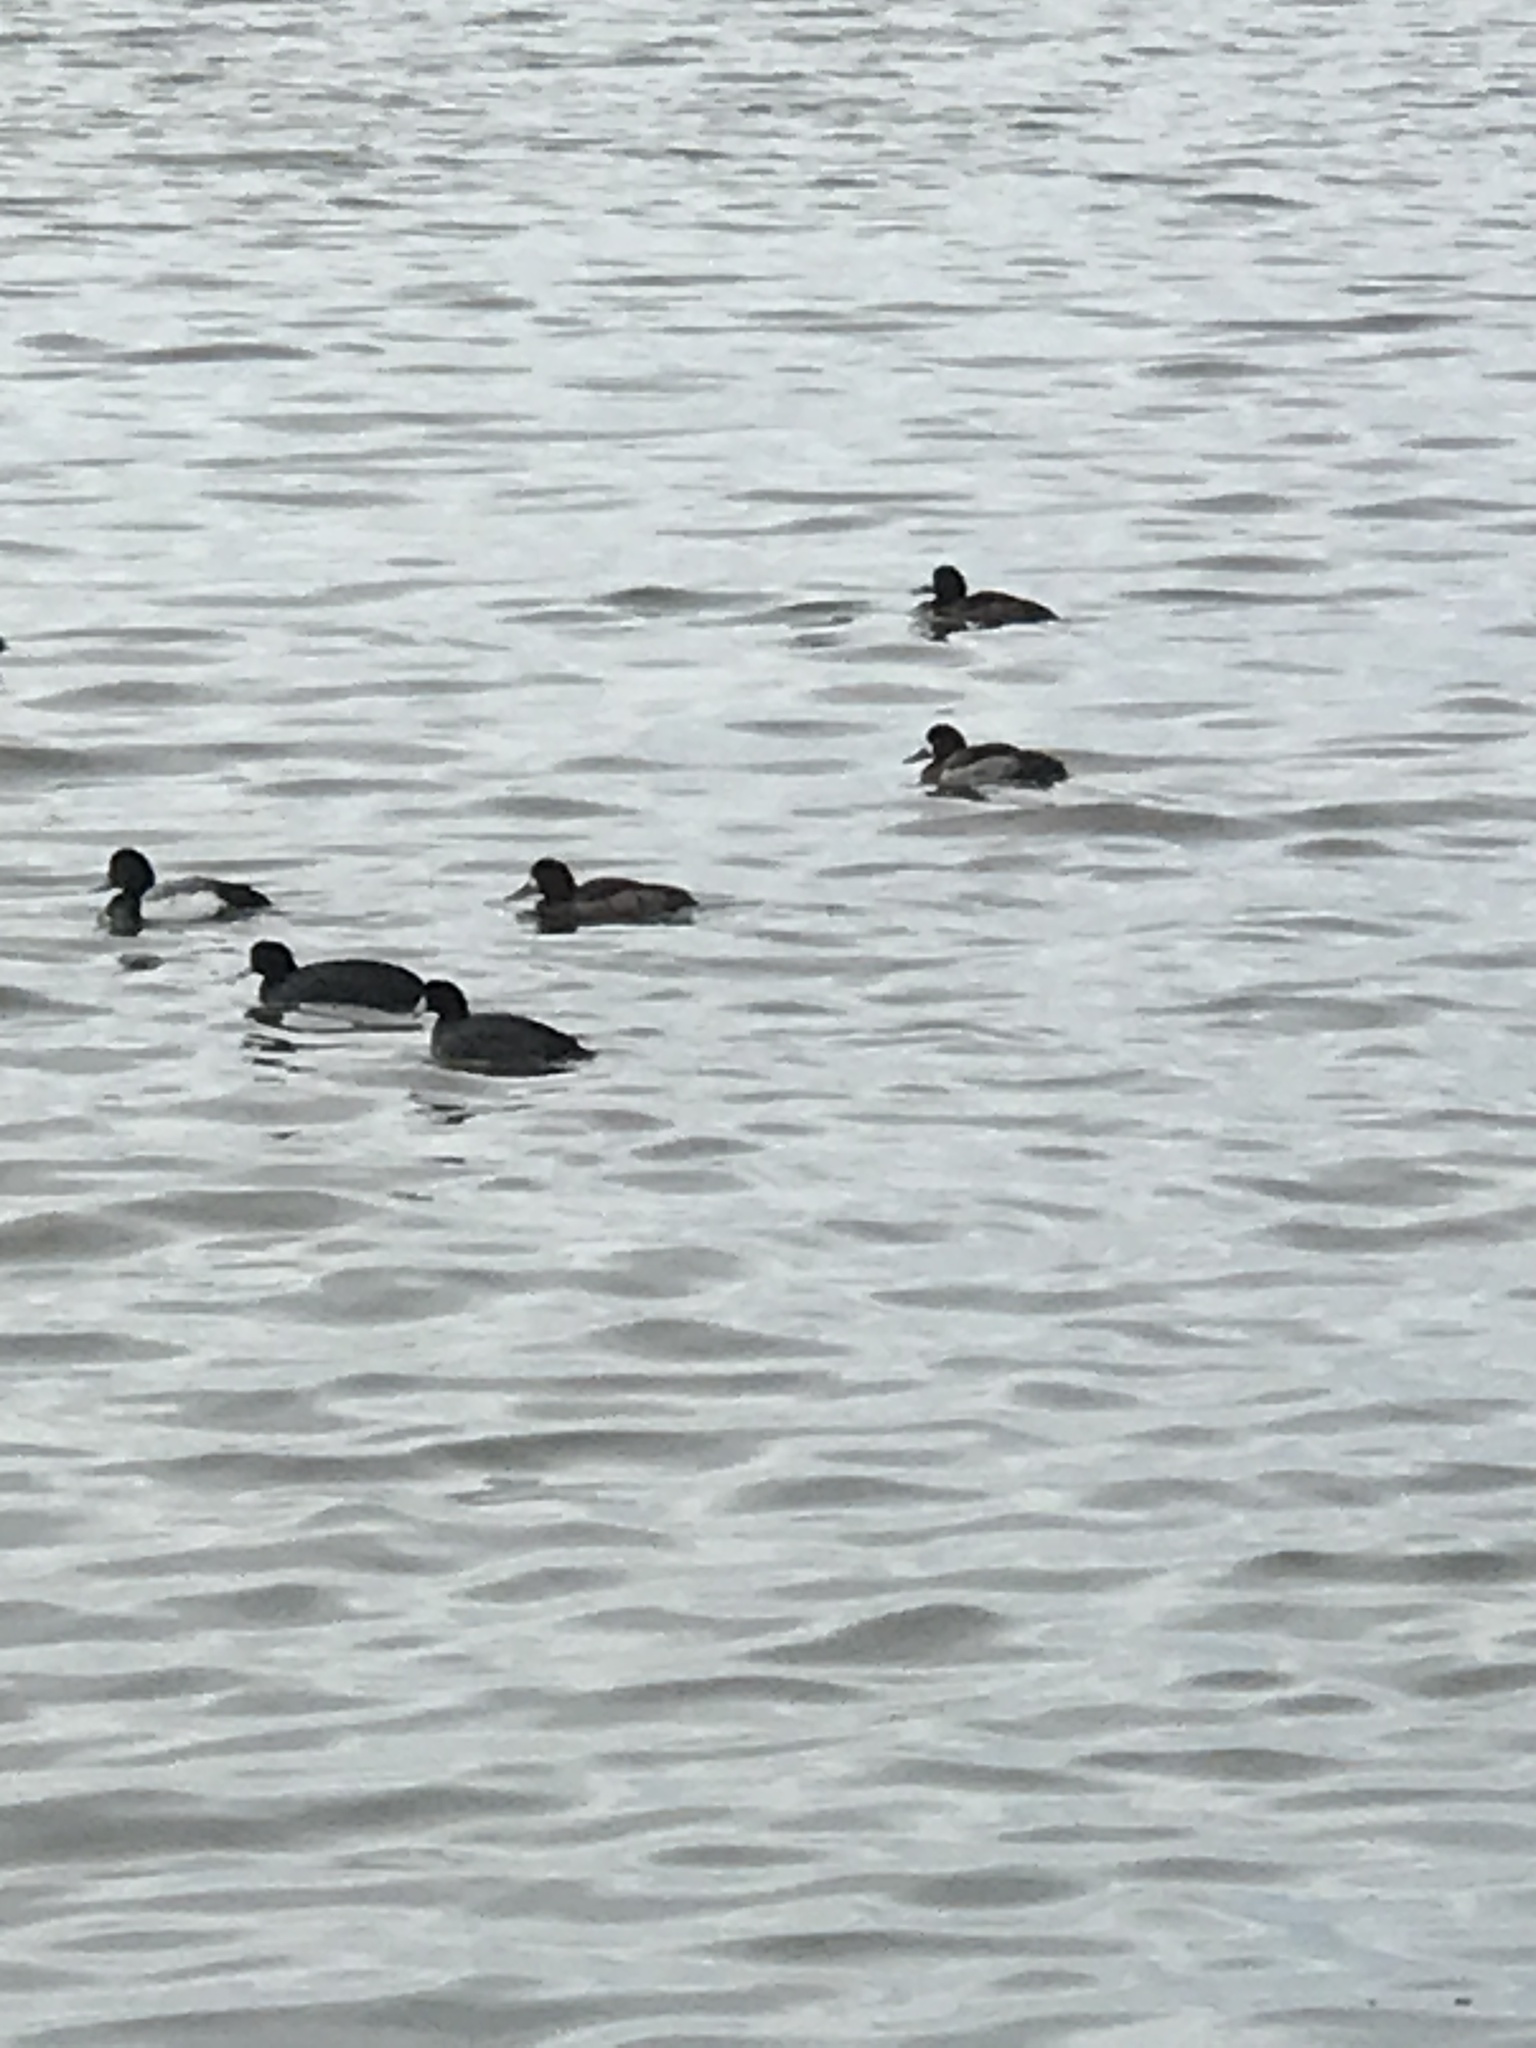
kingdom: Animalia
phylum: Chordata
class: Aves
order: Anseriformes
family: Anatidae
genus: Aythya
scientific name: Aythya
